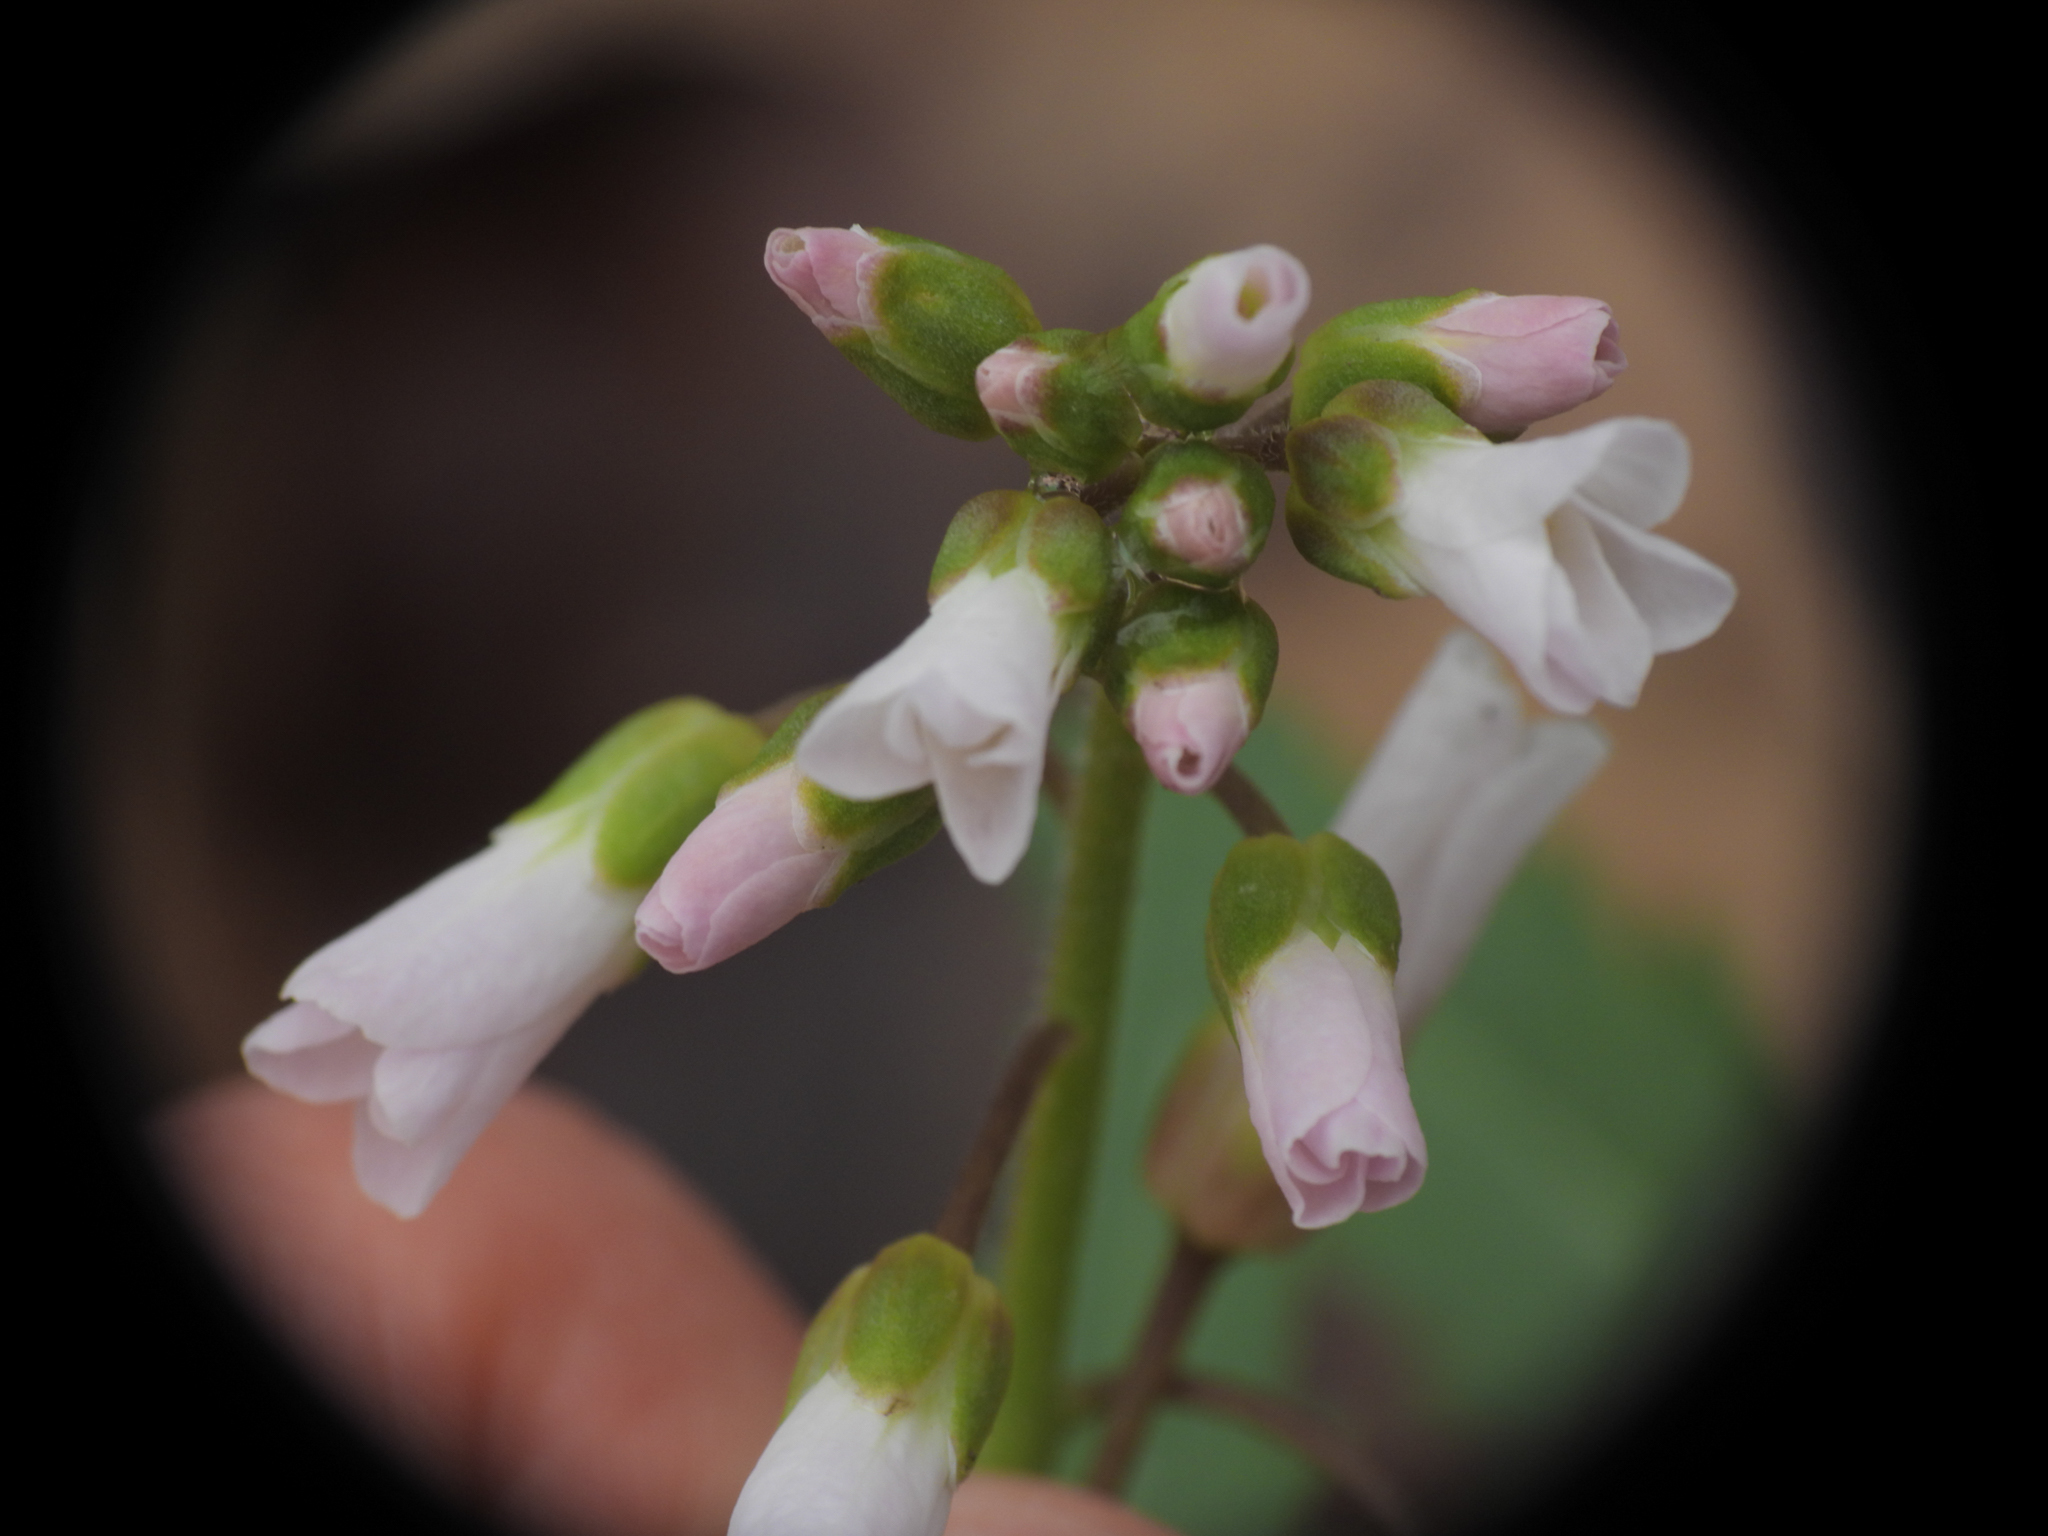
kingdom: Plantae
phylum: Tracheophyta
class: Magnoliopsida
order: Brassicales
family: Brassicaceae
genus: Cardamine
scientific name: Cardamine concatenata
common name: Cut-leaf toothcup
